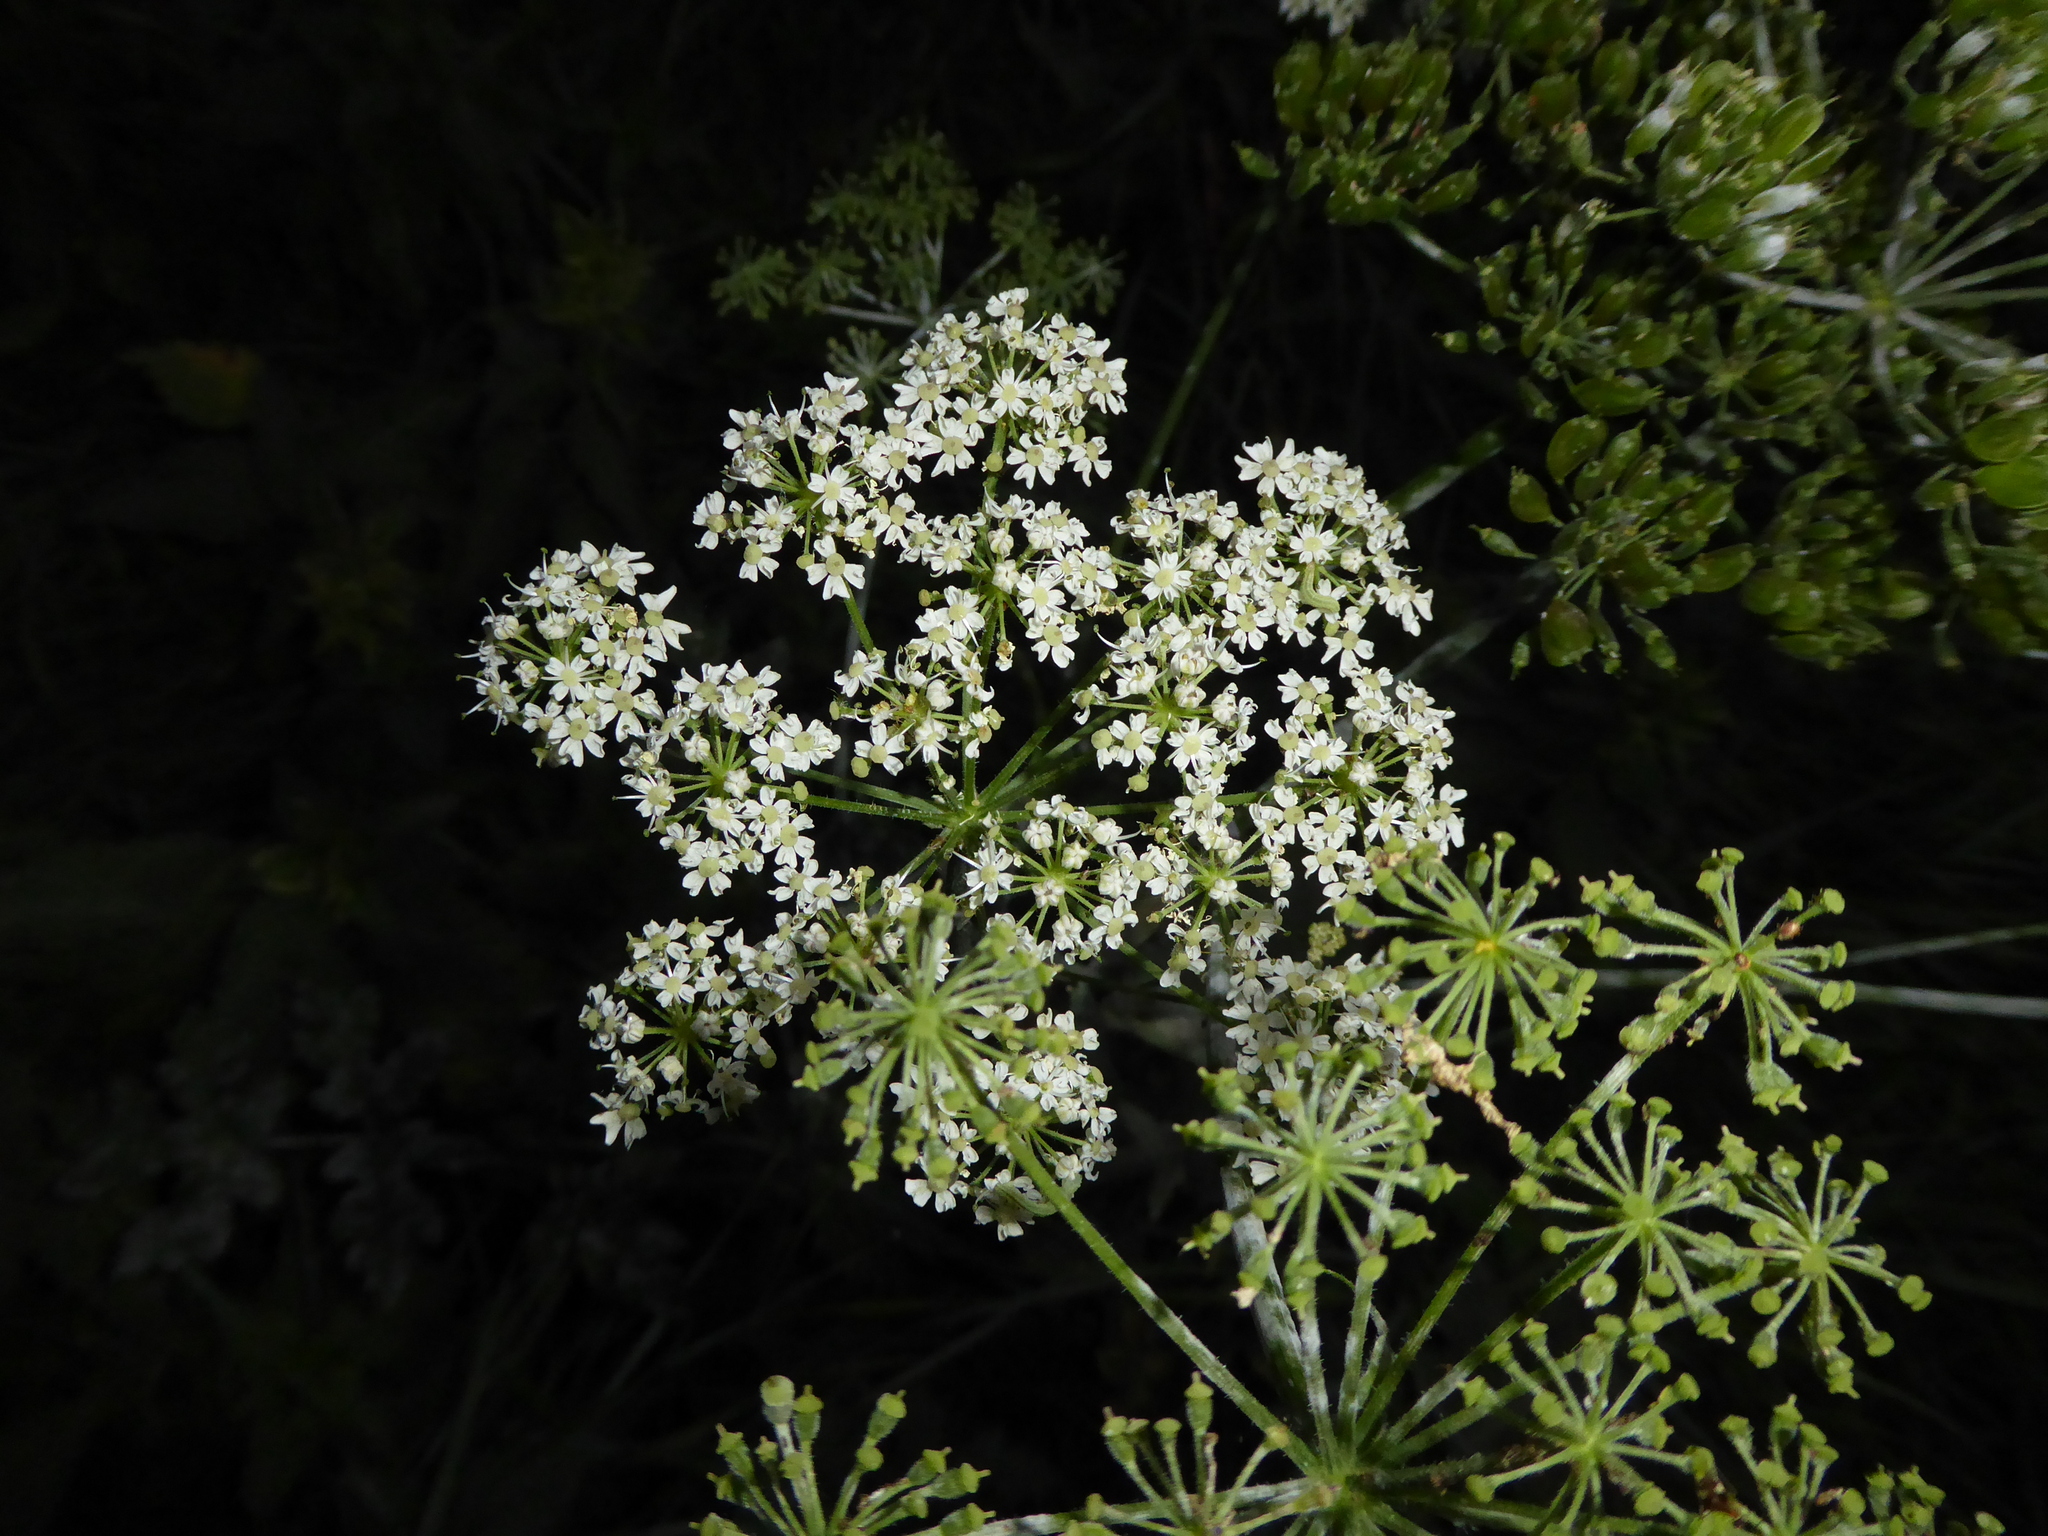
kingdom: Plantae
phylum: Tracheophyta
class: Magnoliopsida
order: Apiales
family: Apiaceae
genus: Heracleum
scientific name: Heracleum sphondylium
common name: Hogweed
